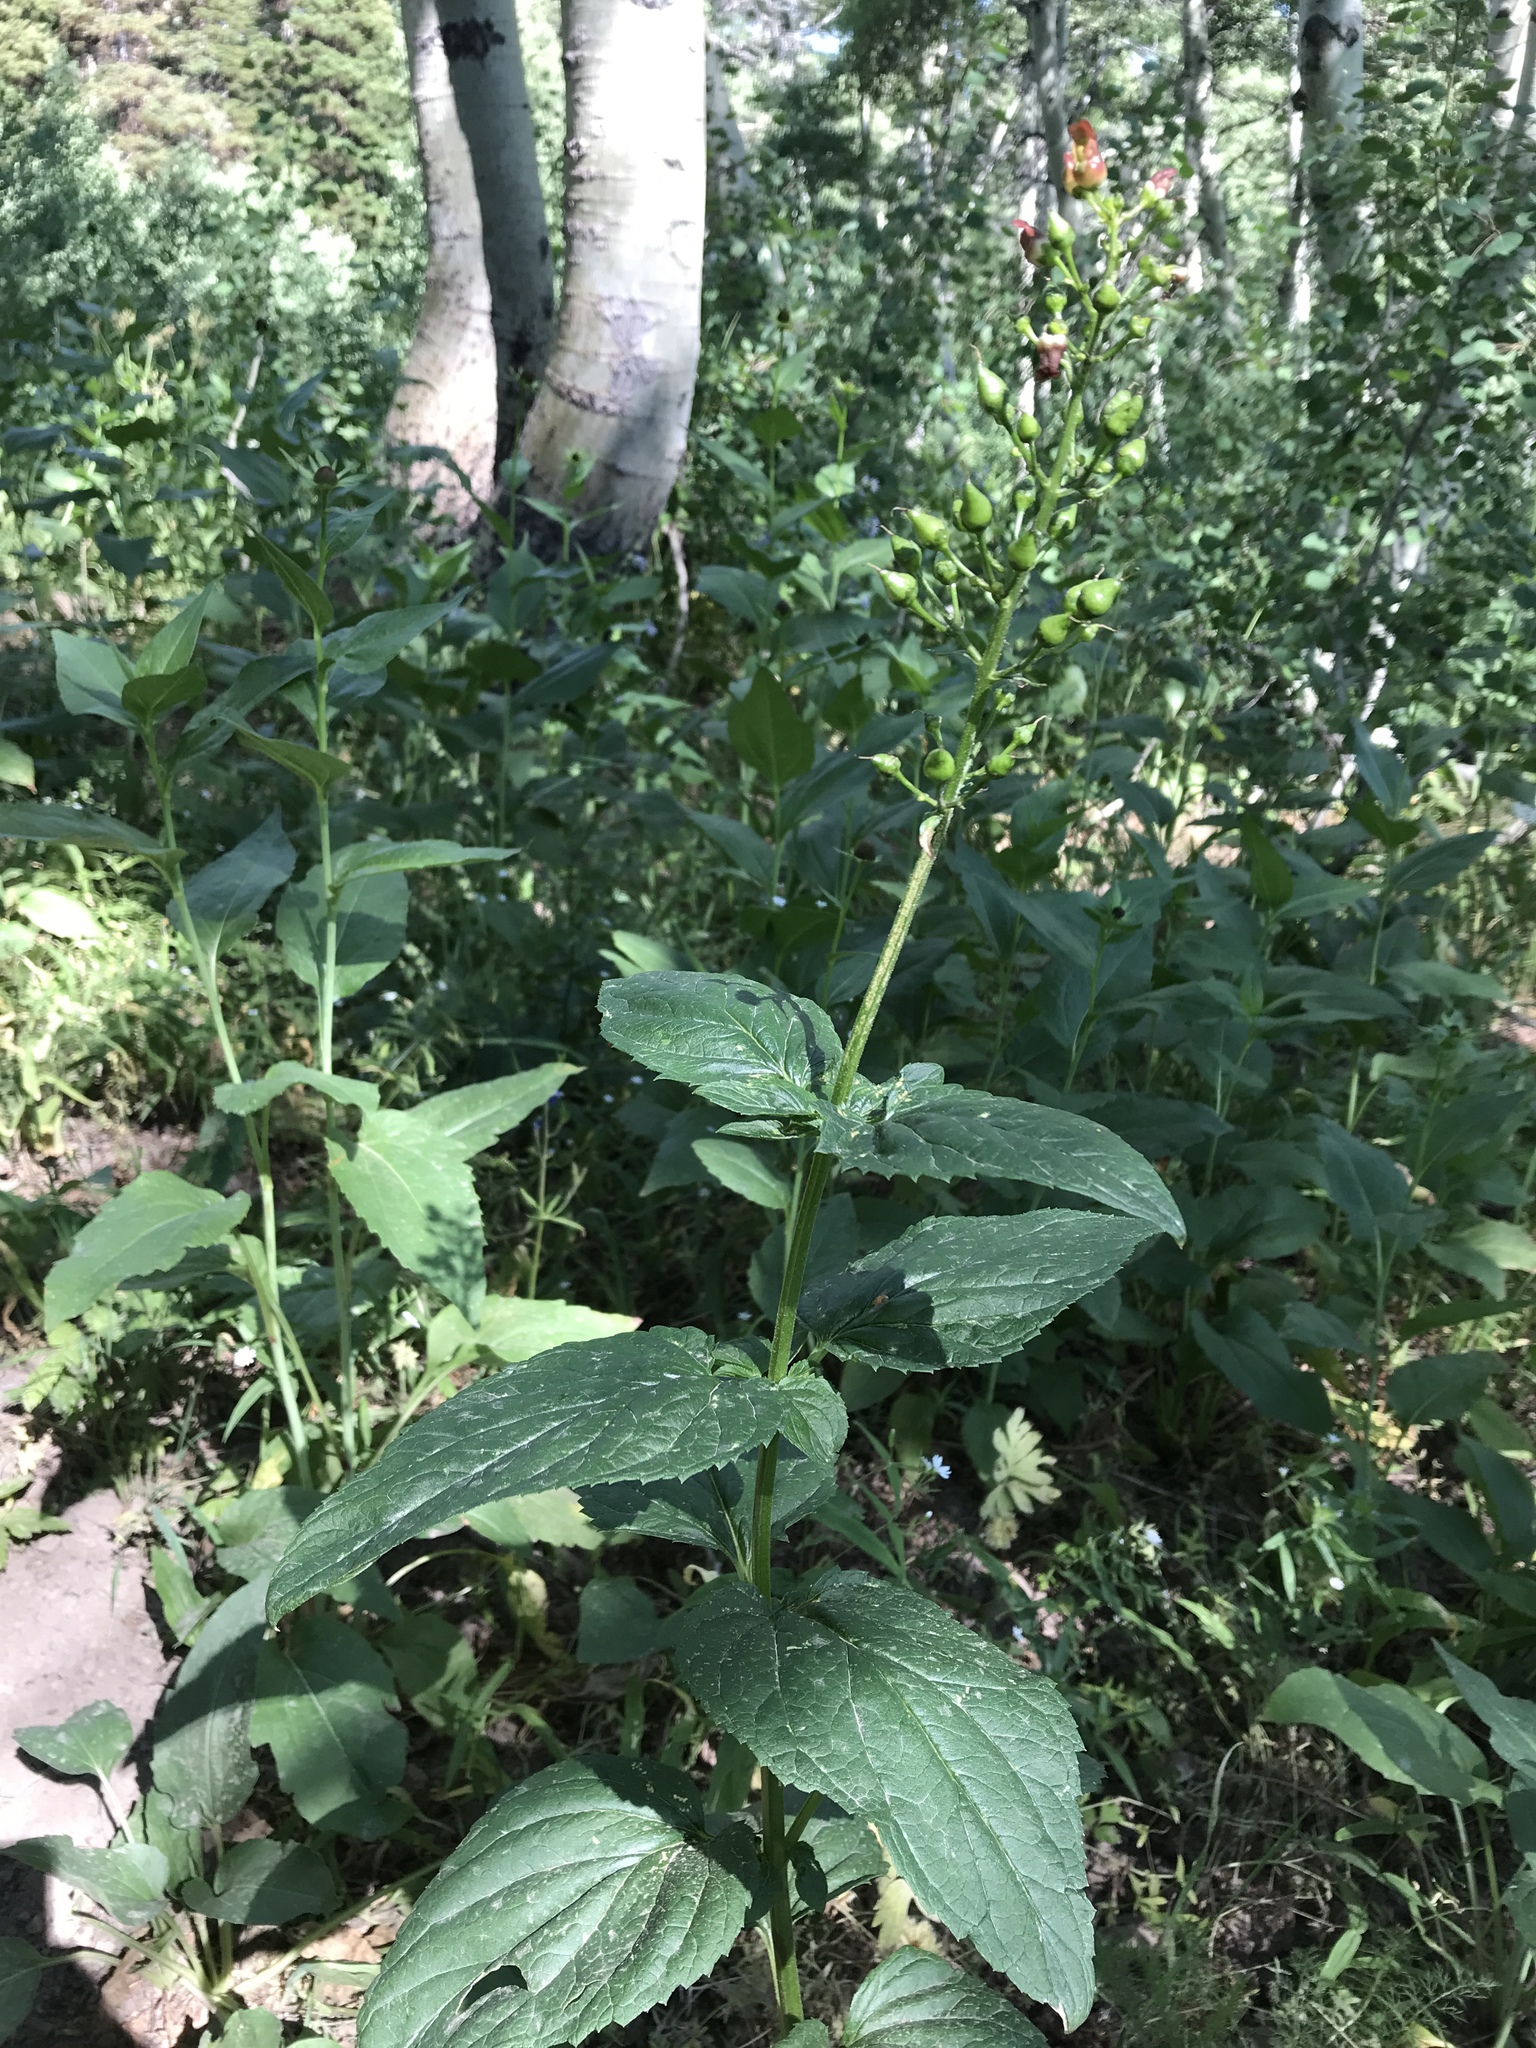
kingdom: Plantae
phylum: Tracheophyta
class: Magnoliopsida
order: Lamiales
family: Scrophulariaceae
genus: Scrophularia
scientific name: Scrophularia lanceolata
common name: American figwort
